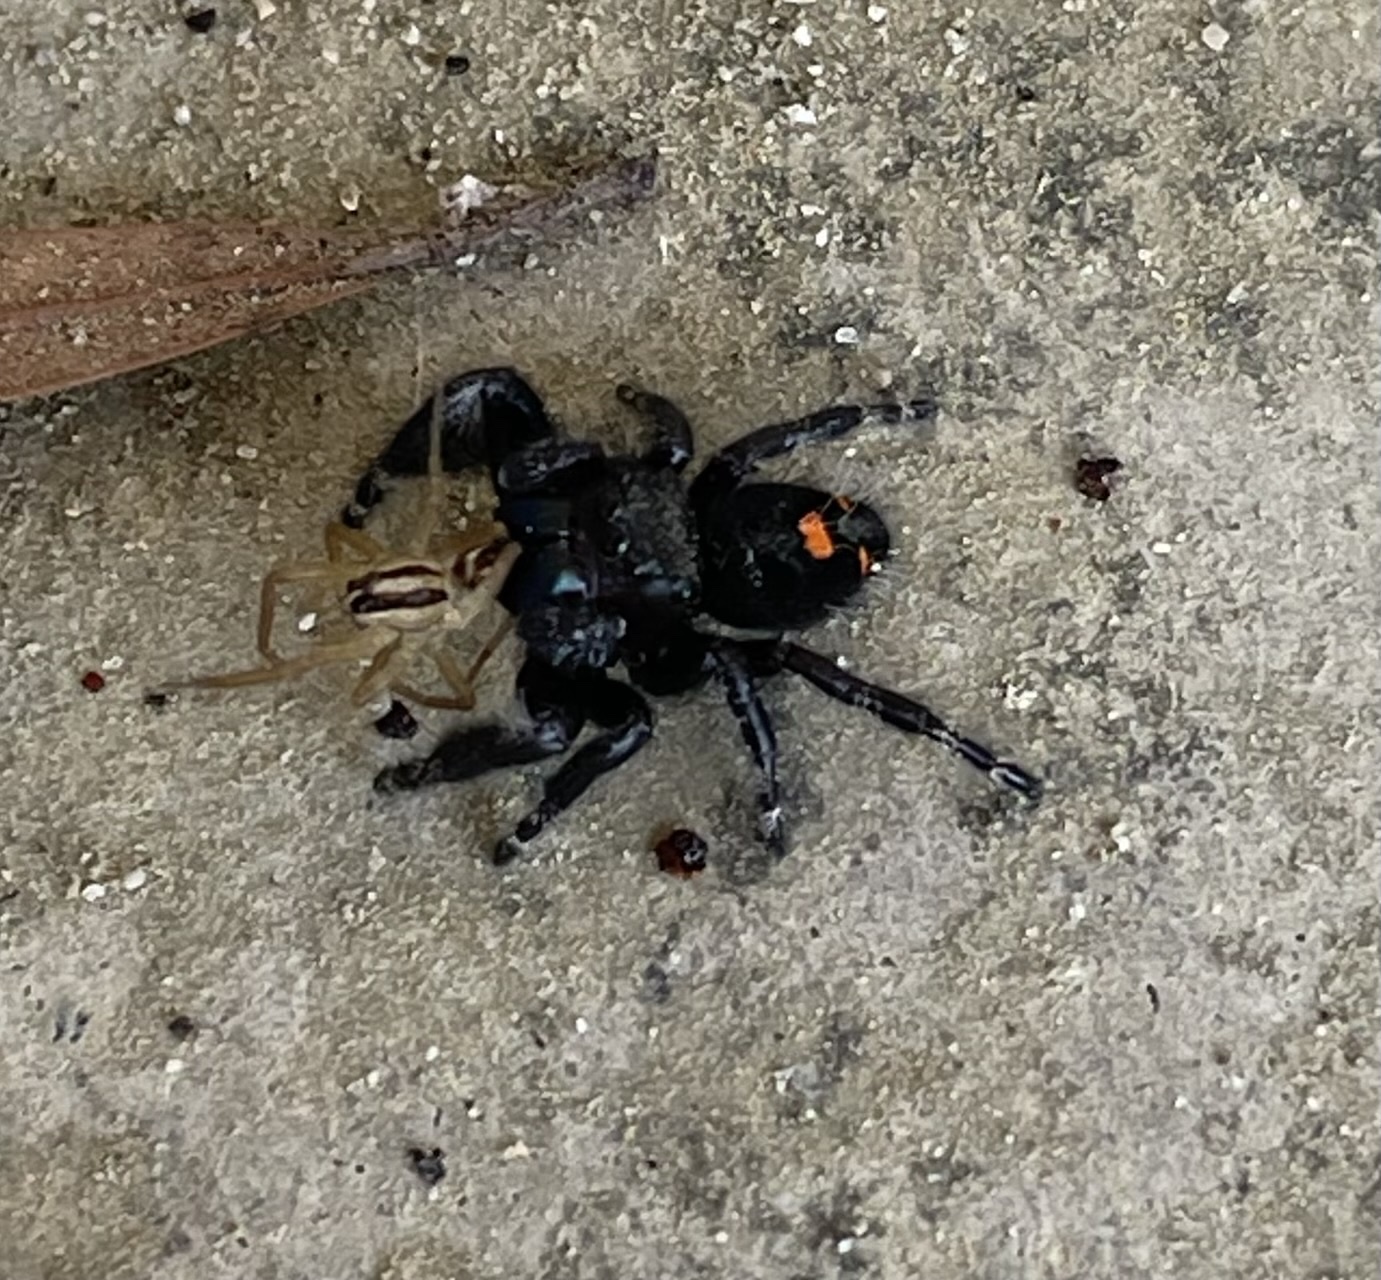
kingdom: Animalia
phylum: Arthropoda
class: Arachnida
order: Araneae
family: Salticidae
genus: Phidippus
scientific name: Phidippus audax
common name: Bold jumper
